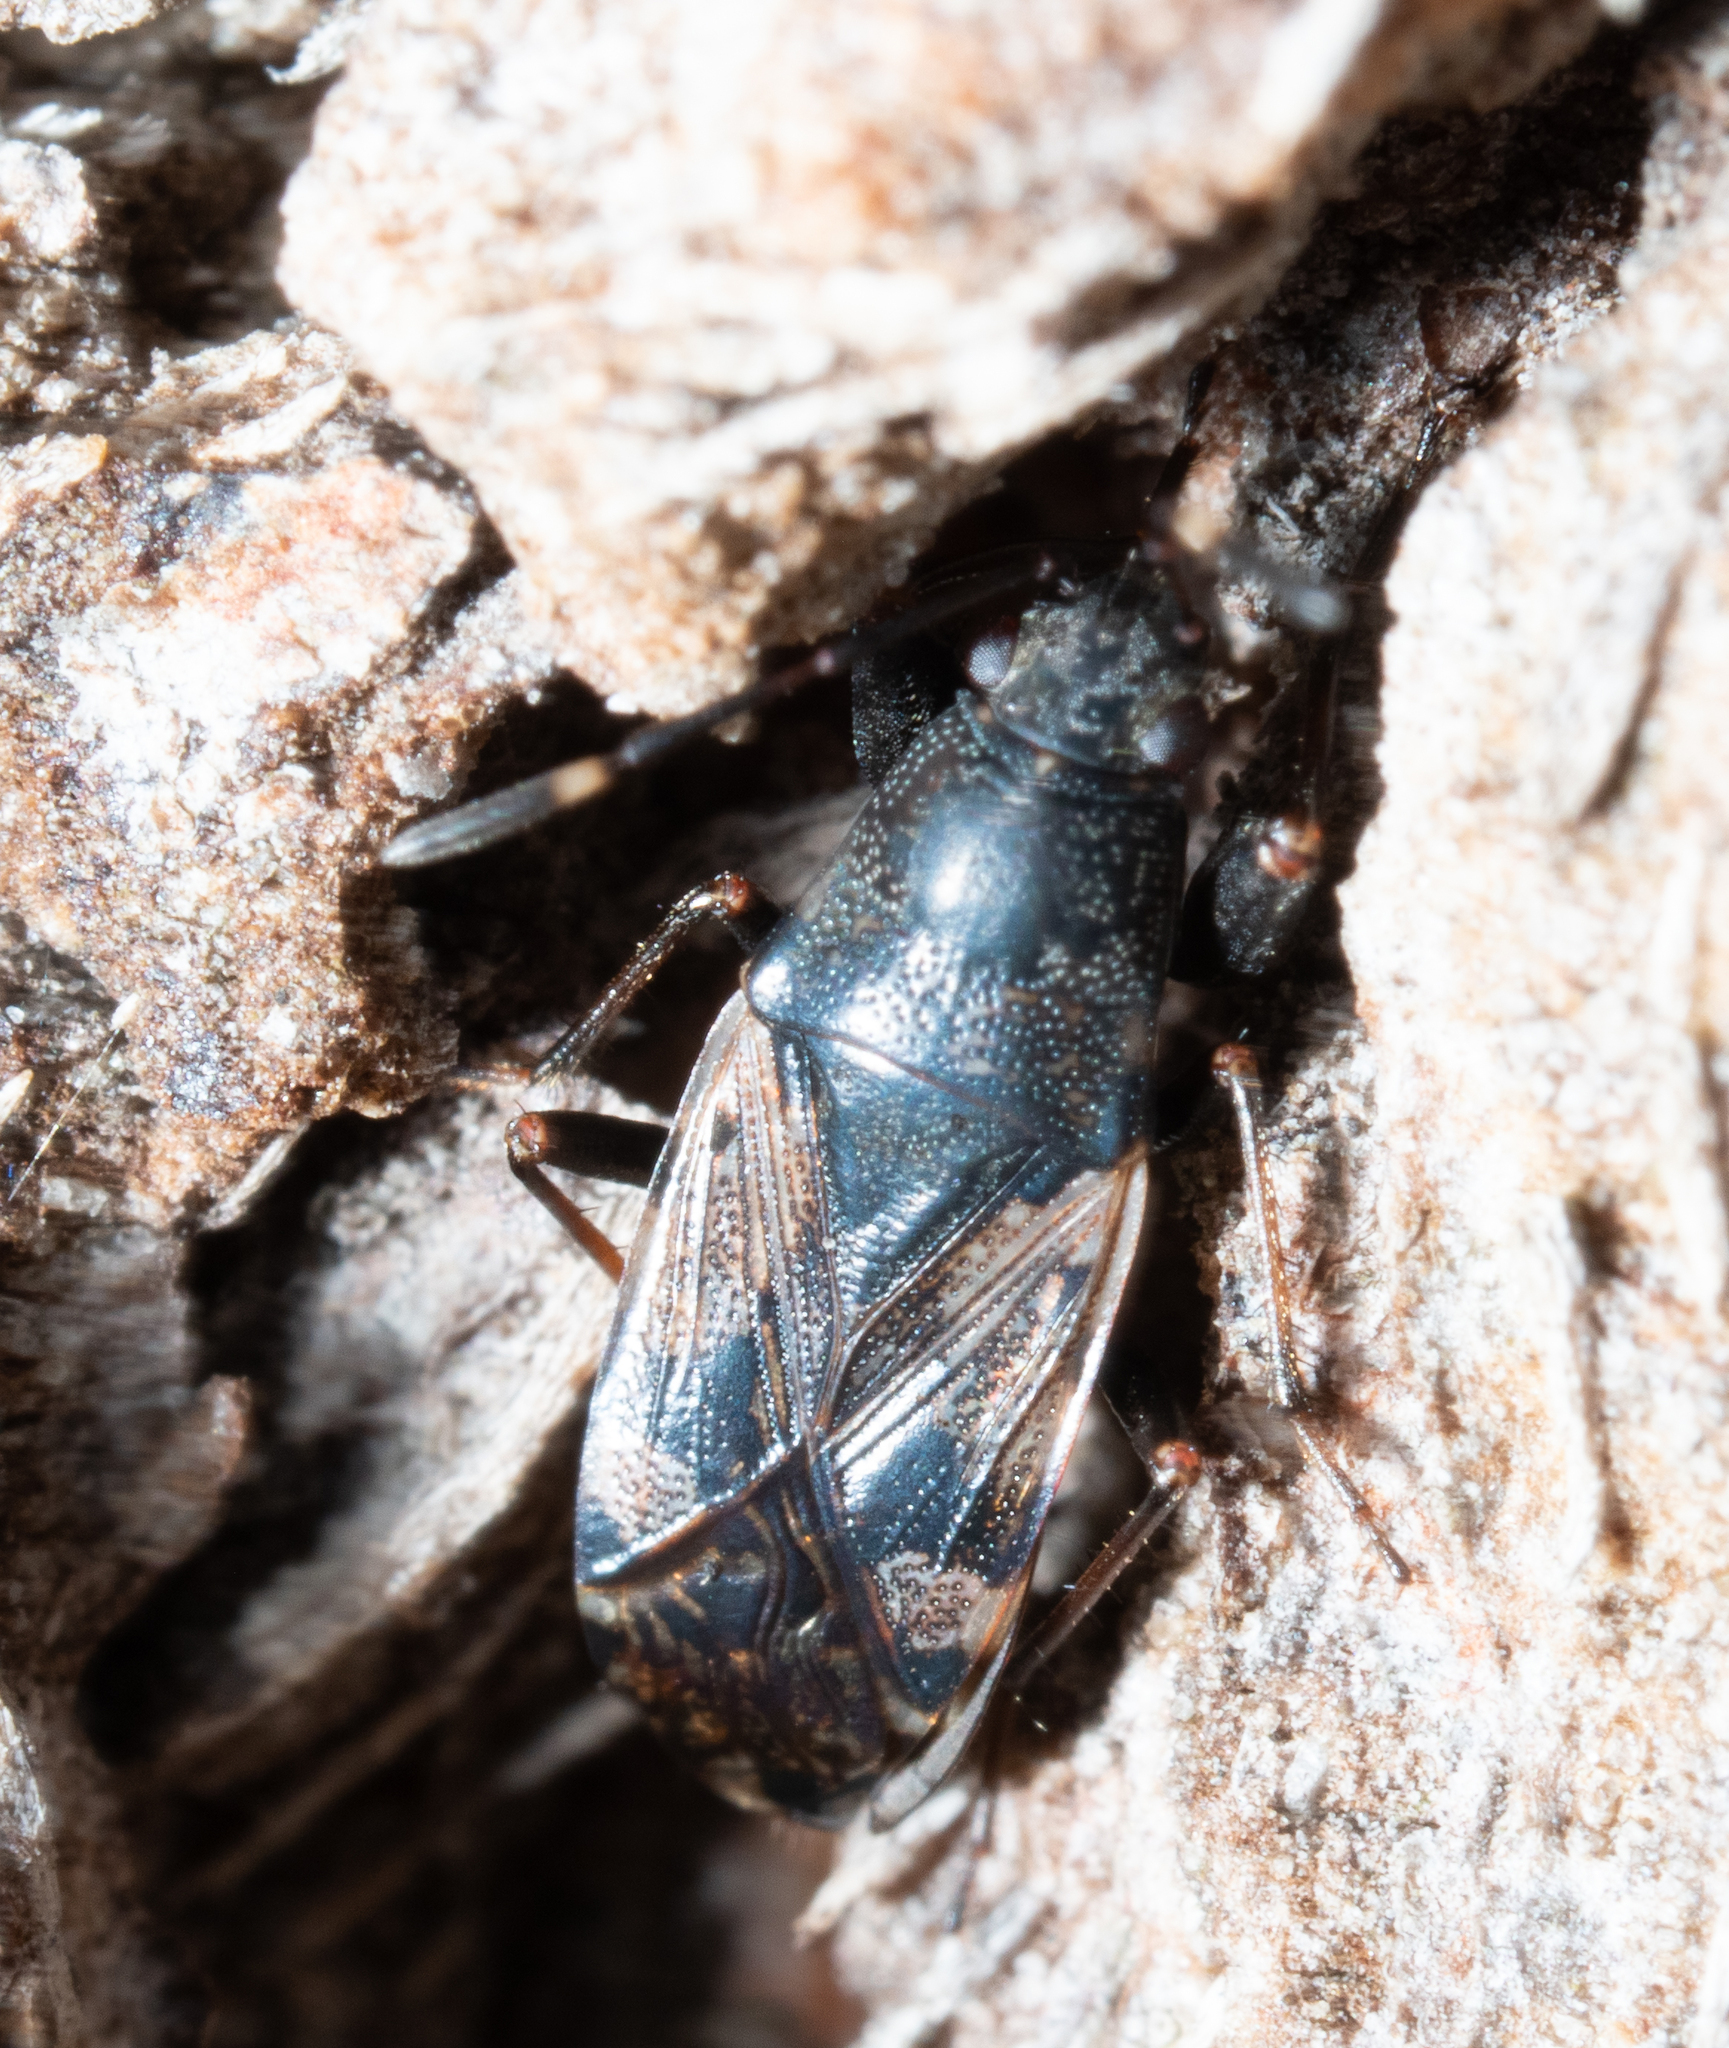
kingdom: Animalia
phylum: Arthropoda
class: Insecta
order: Hemiptera
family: Rhyparochromidae
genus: Euander
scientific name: Euander lacertosus
